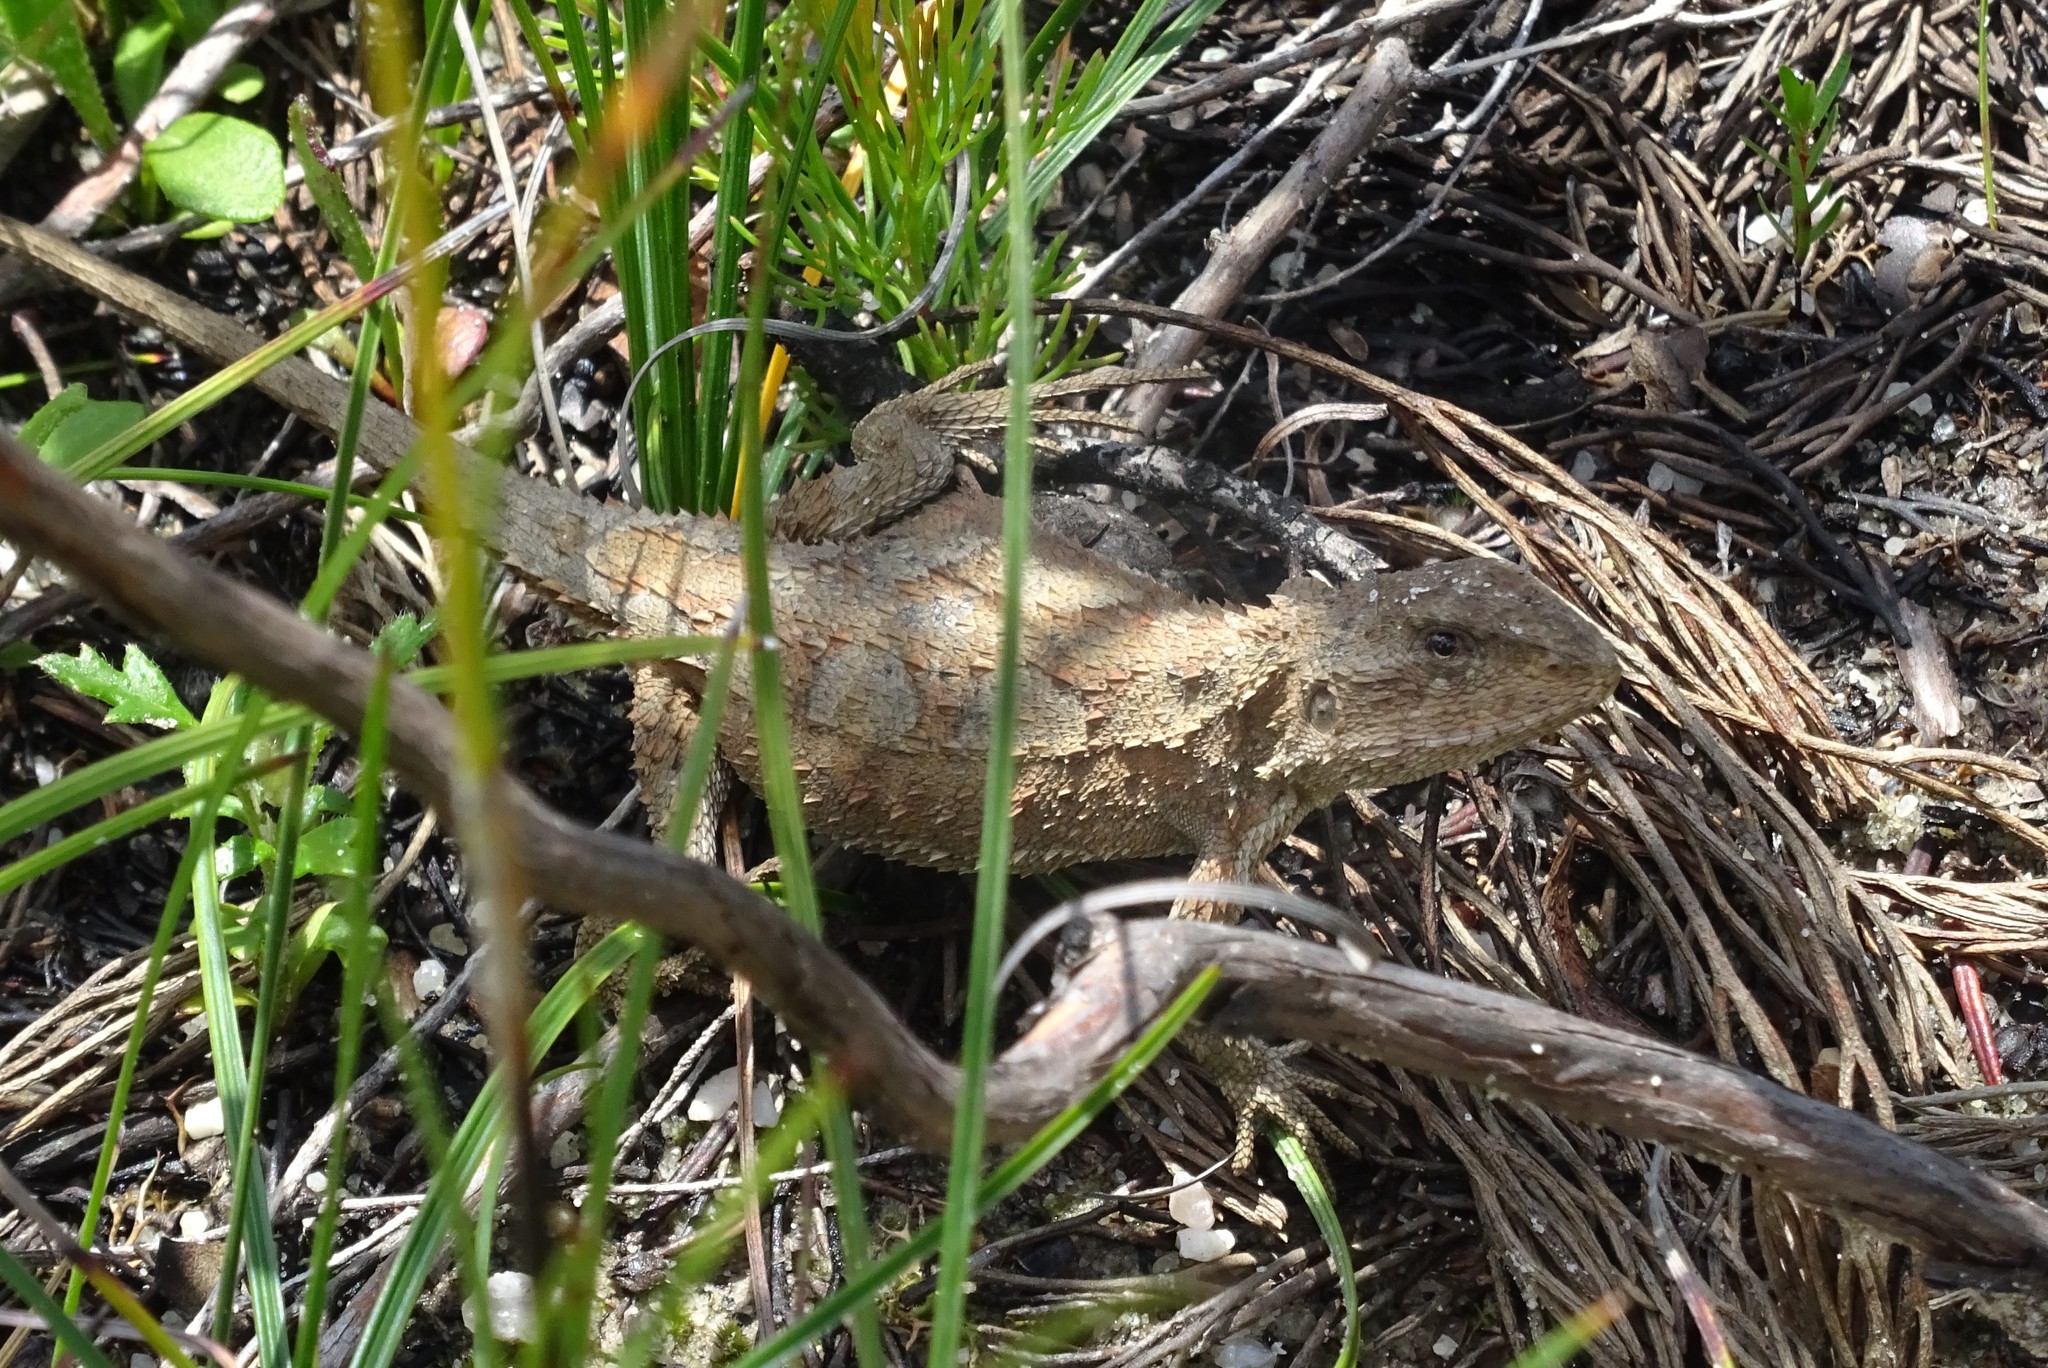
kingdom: Animalia
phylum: Chordata
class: Squamata
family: Agamidae
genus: Rankinia
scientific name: Rankinia diemensis
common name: Mountain dragon
